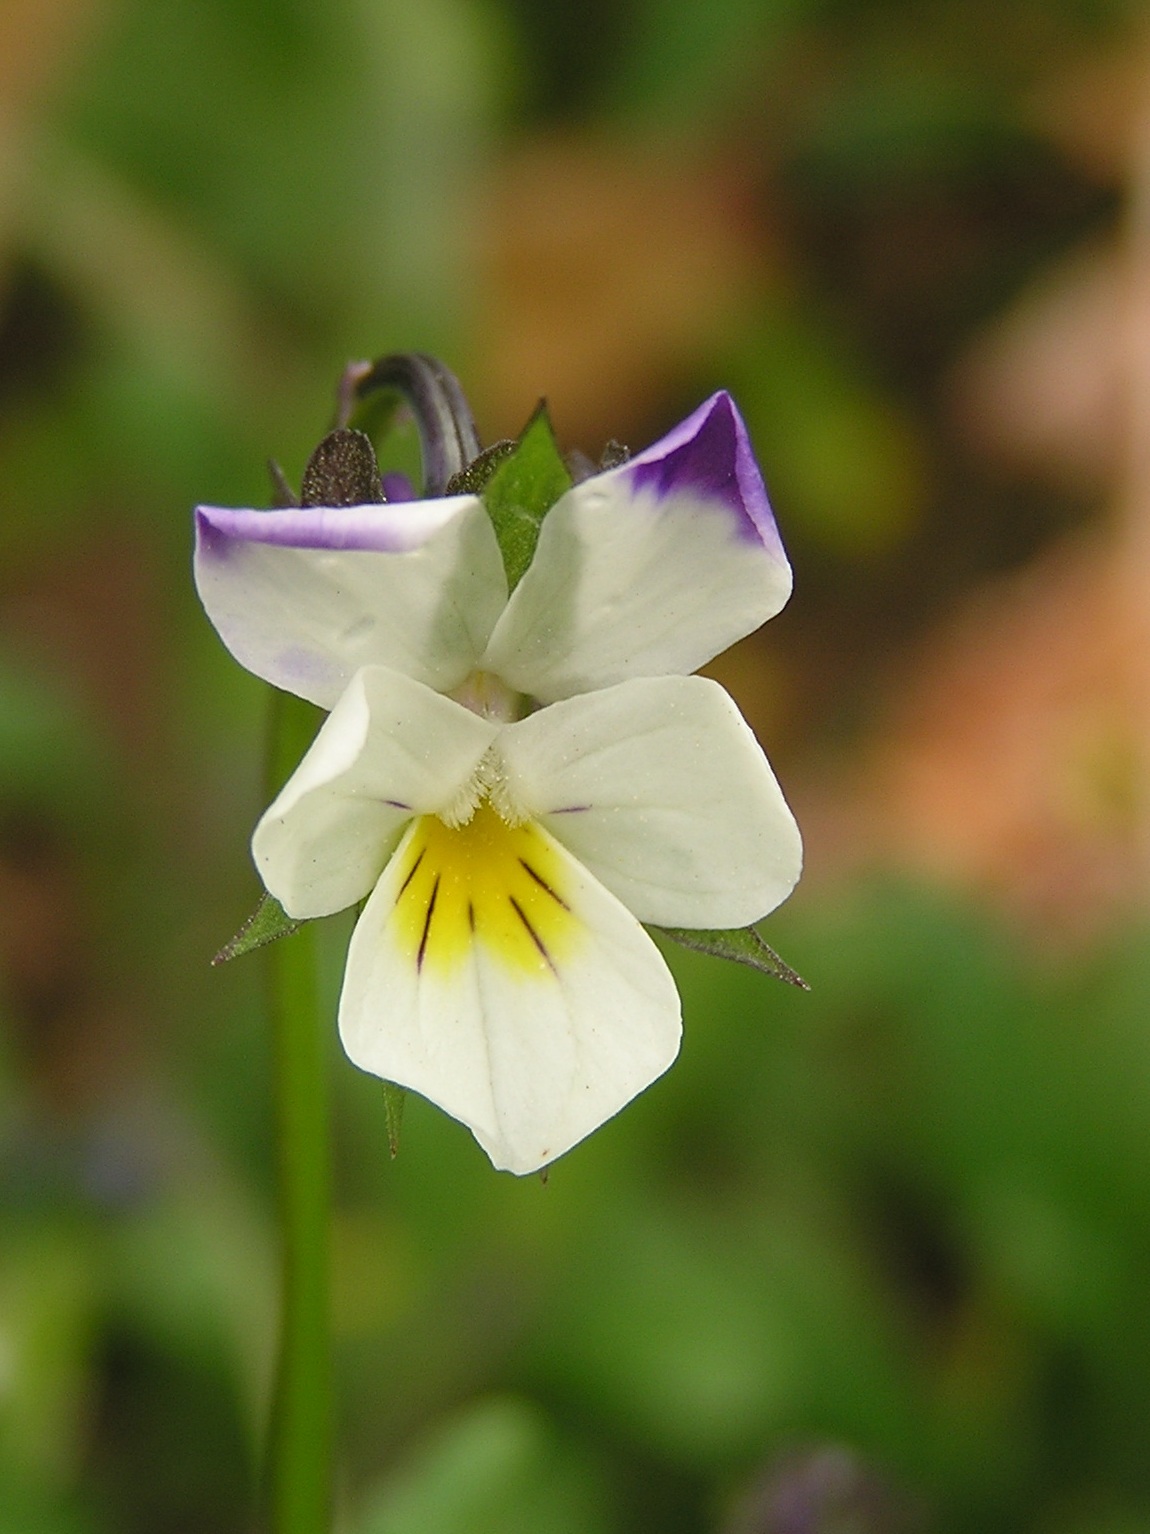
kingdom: Plantae
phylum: Tracheophyta
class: Magnoliopsida
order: Malpighiales
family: Violaceae
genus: Viola
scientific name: Viola arvensis
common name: Field pansy
